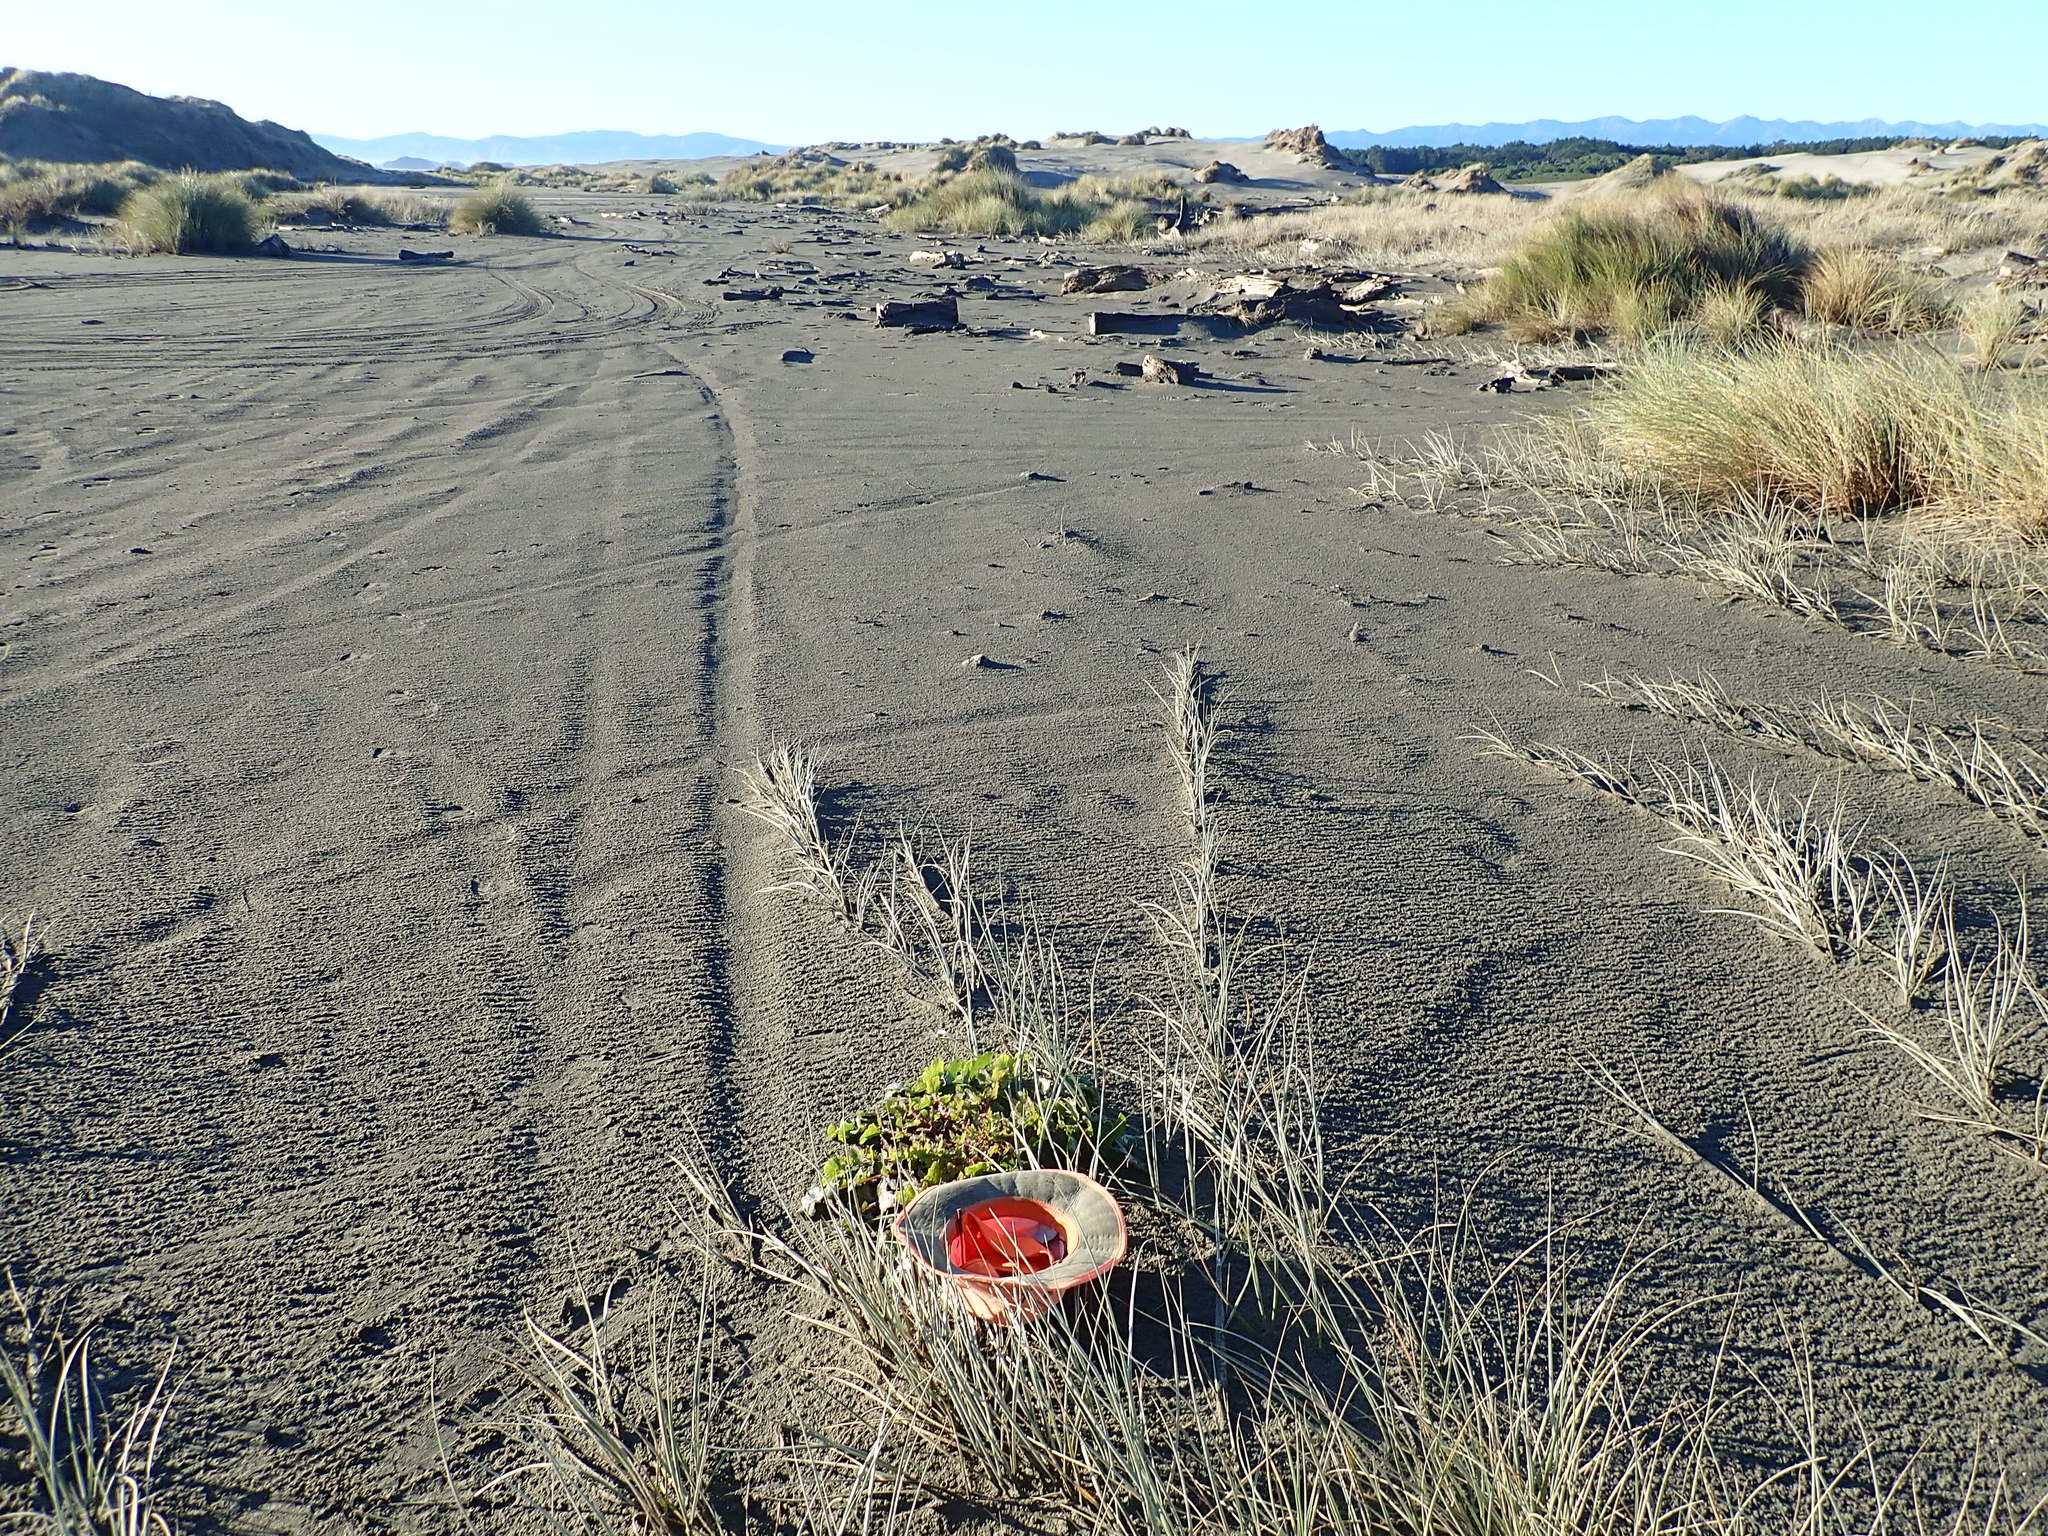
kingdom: Plantae
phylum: Tracheophyta
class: Magnoliopsida
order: Asterales
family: Asteraceae
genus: Sonchus
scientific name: Sonchus oleraceus
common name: Common sowthistle
